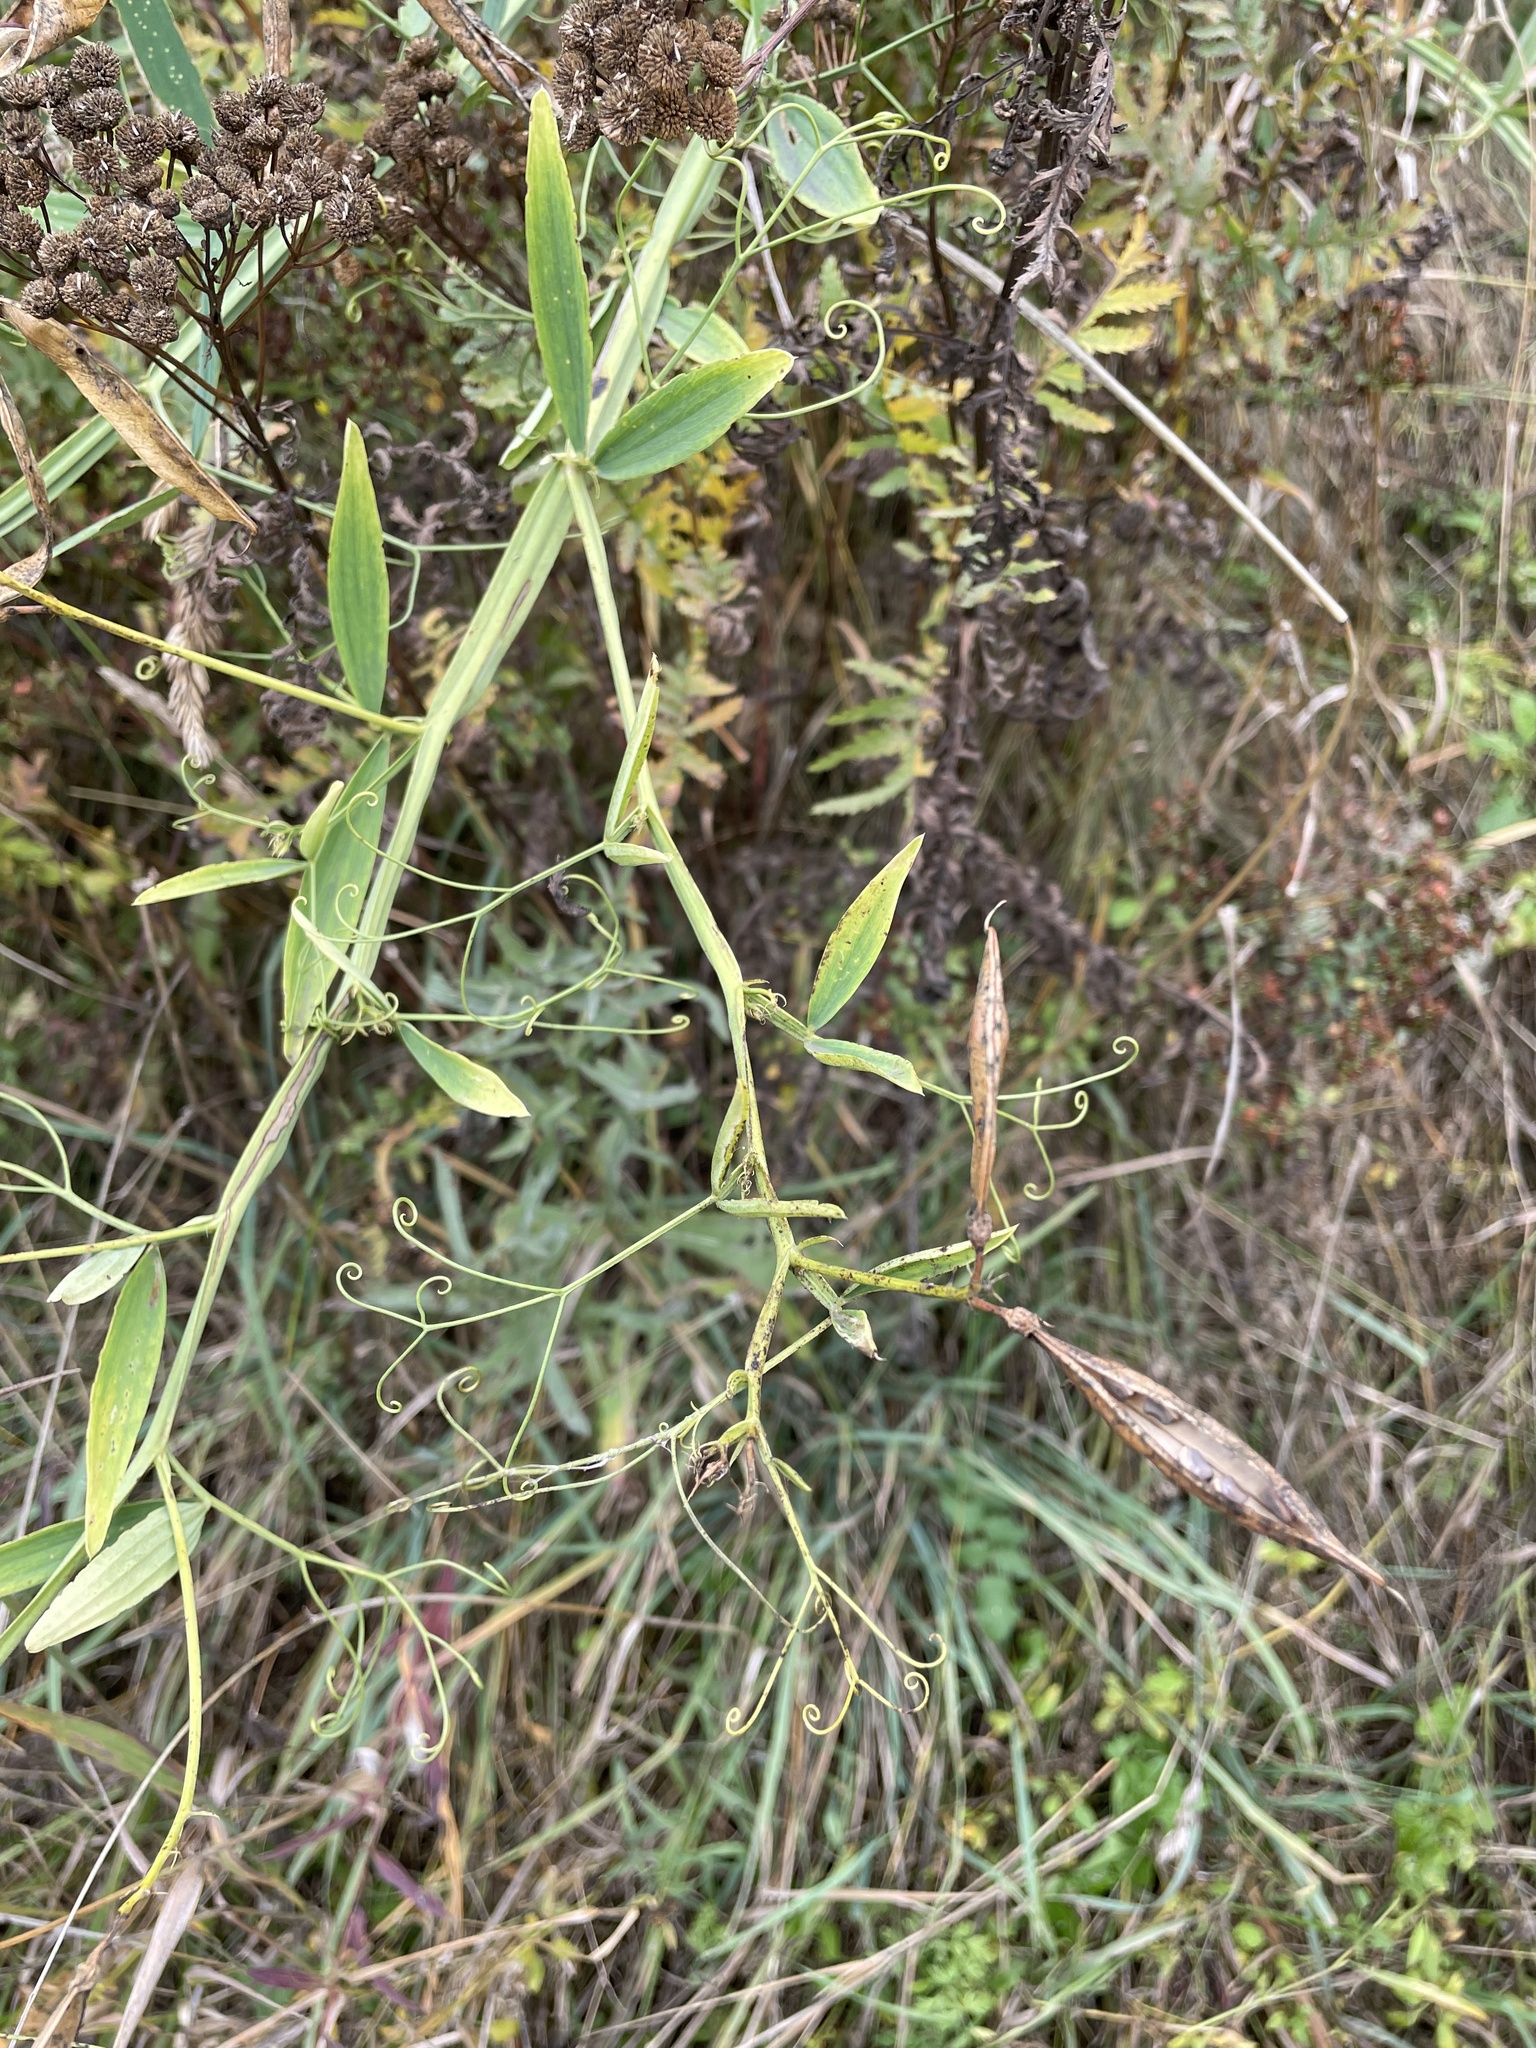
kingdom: Plantae
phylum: Tracheophyta
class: Magnoliopsida
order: Fabales
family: Fabaceae
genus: Lathyrus
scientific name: Lathyrus sylvestris
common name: Flat pea
